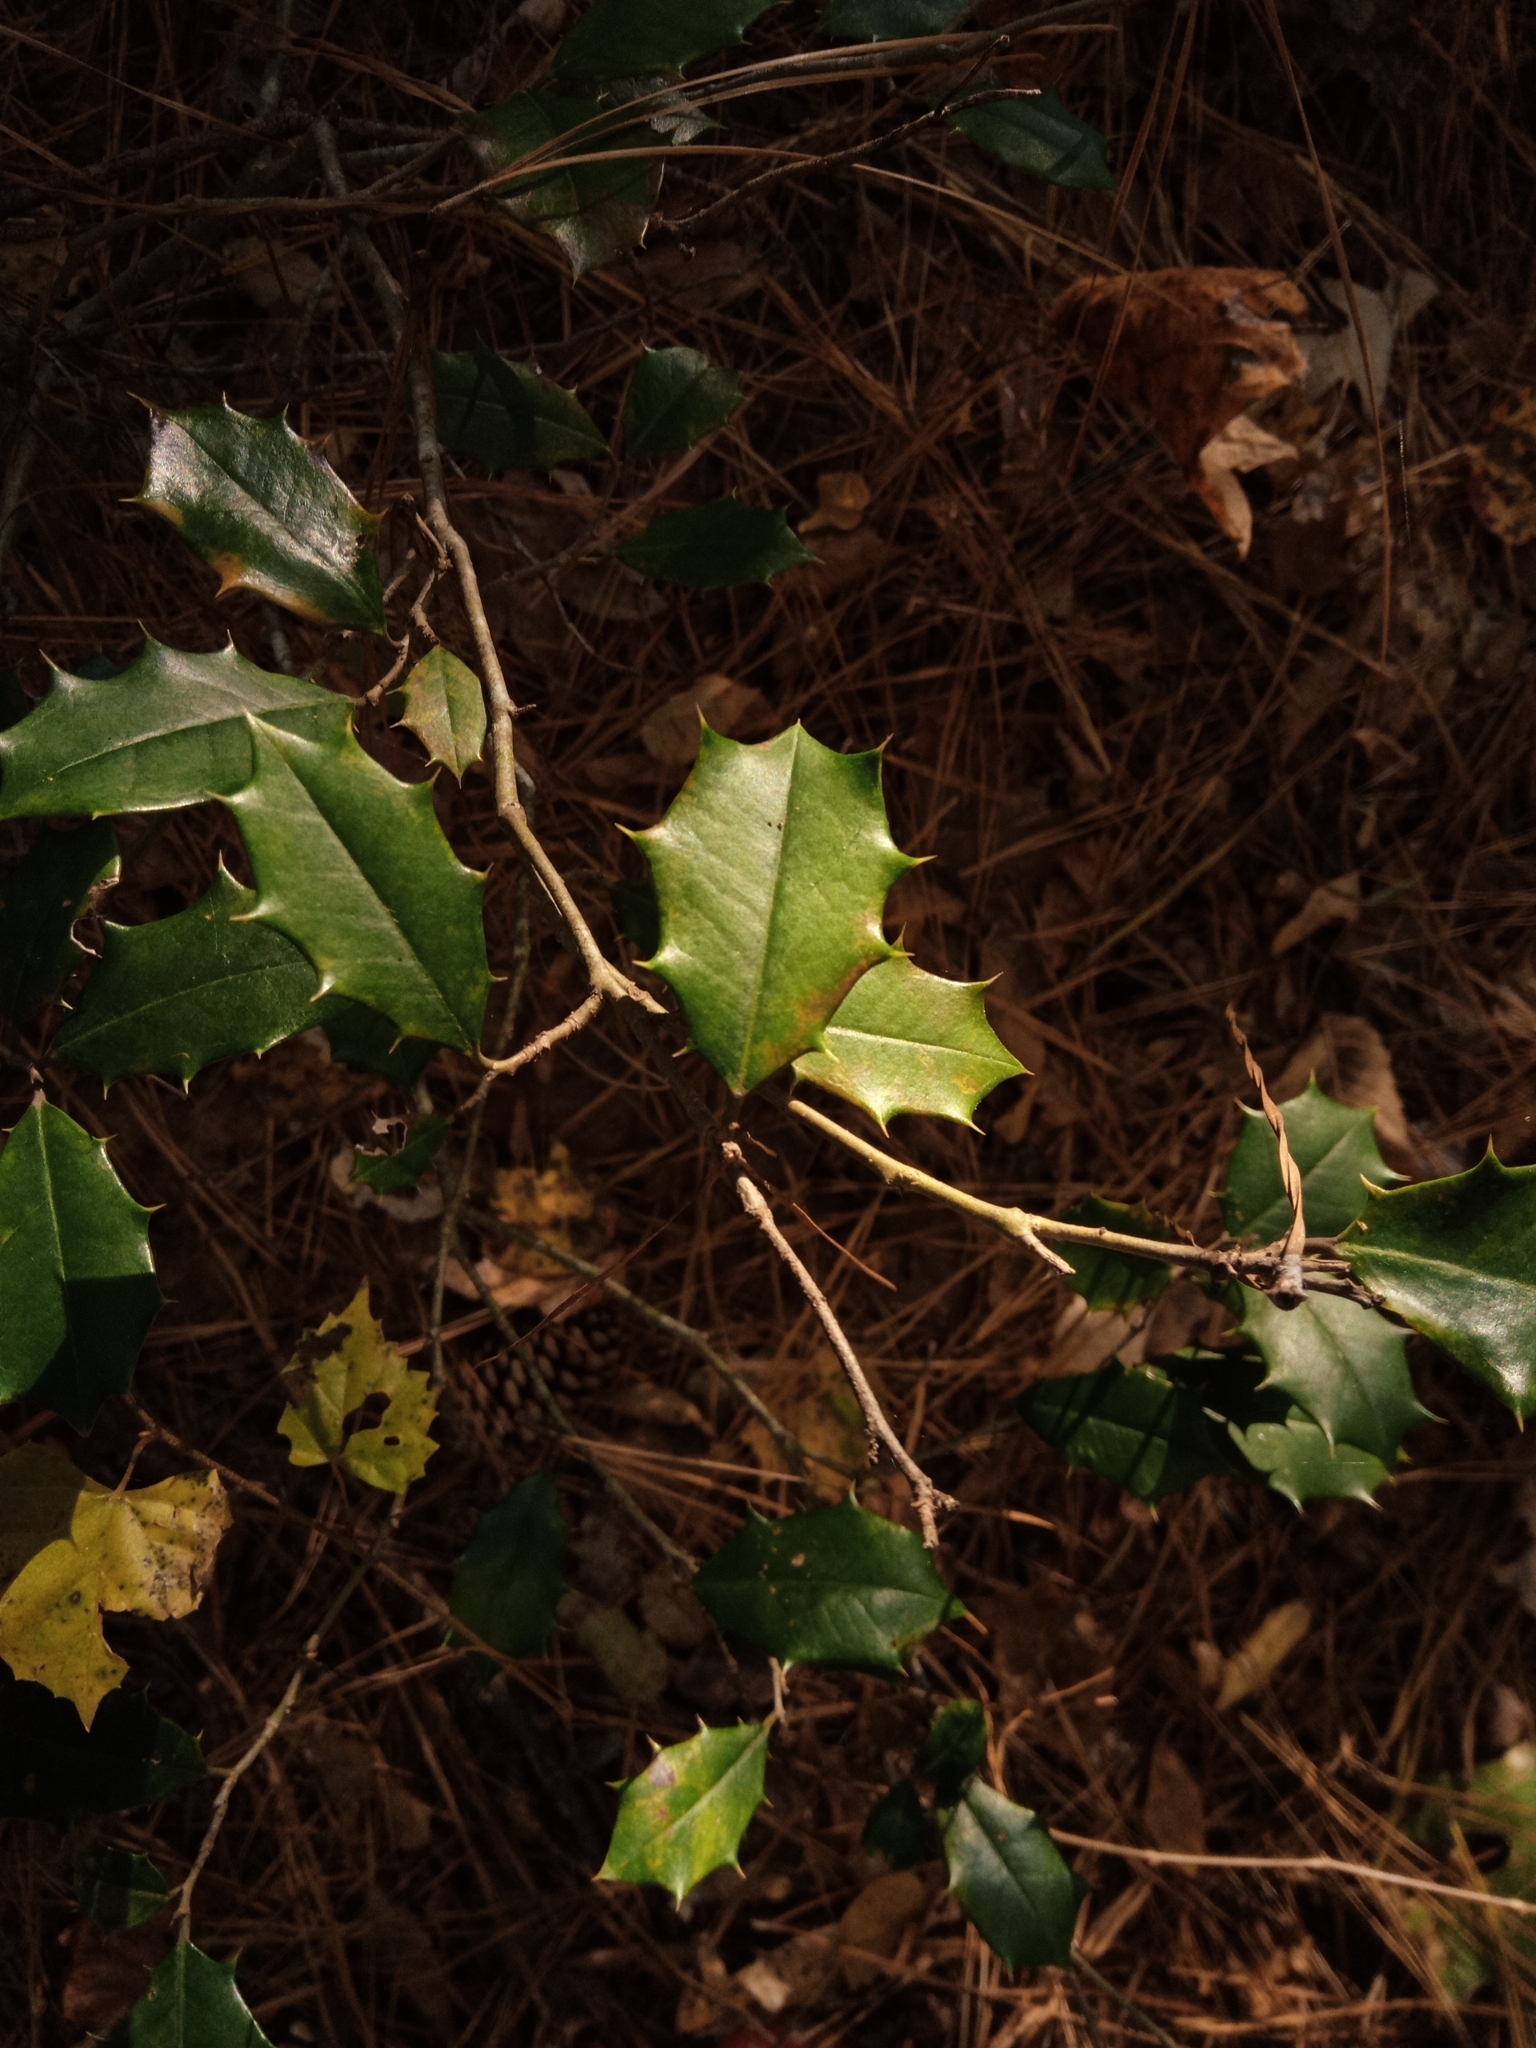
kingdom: Plantae
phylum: Tracheophyta
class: Magnoliopsida
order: Aquifoliales
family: Aquifoliaceae
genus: Ilex
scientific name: Ilex opaca
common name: American holly
